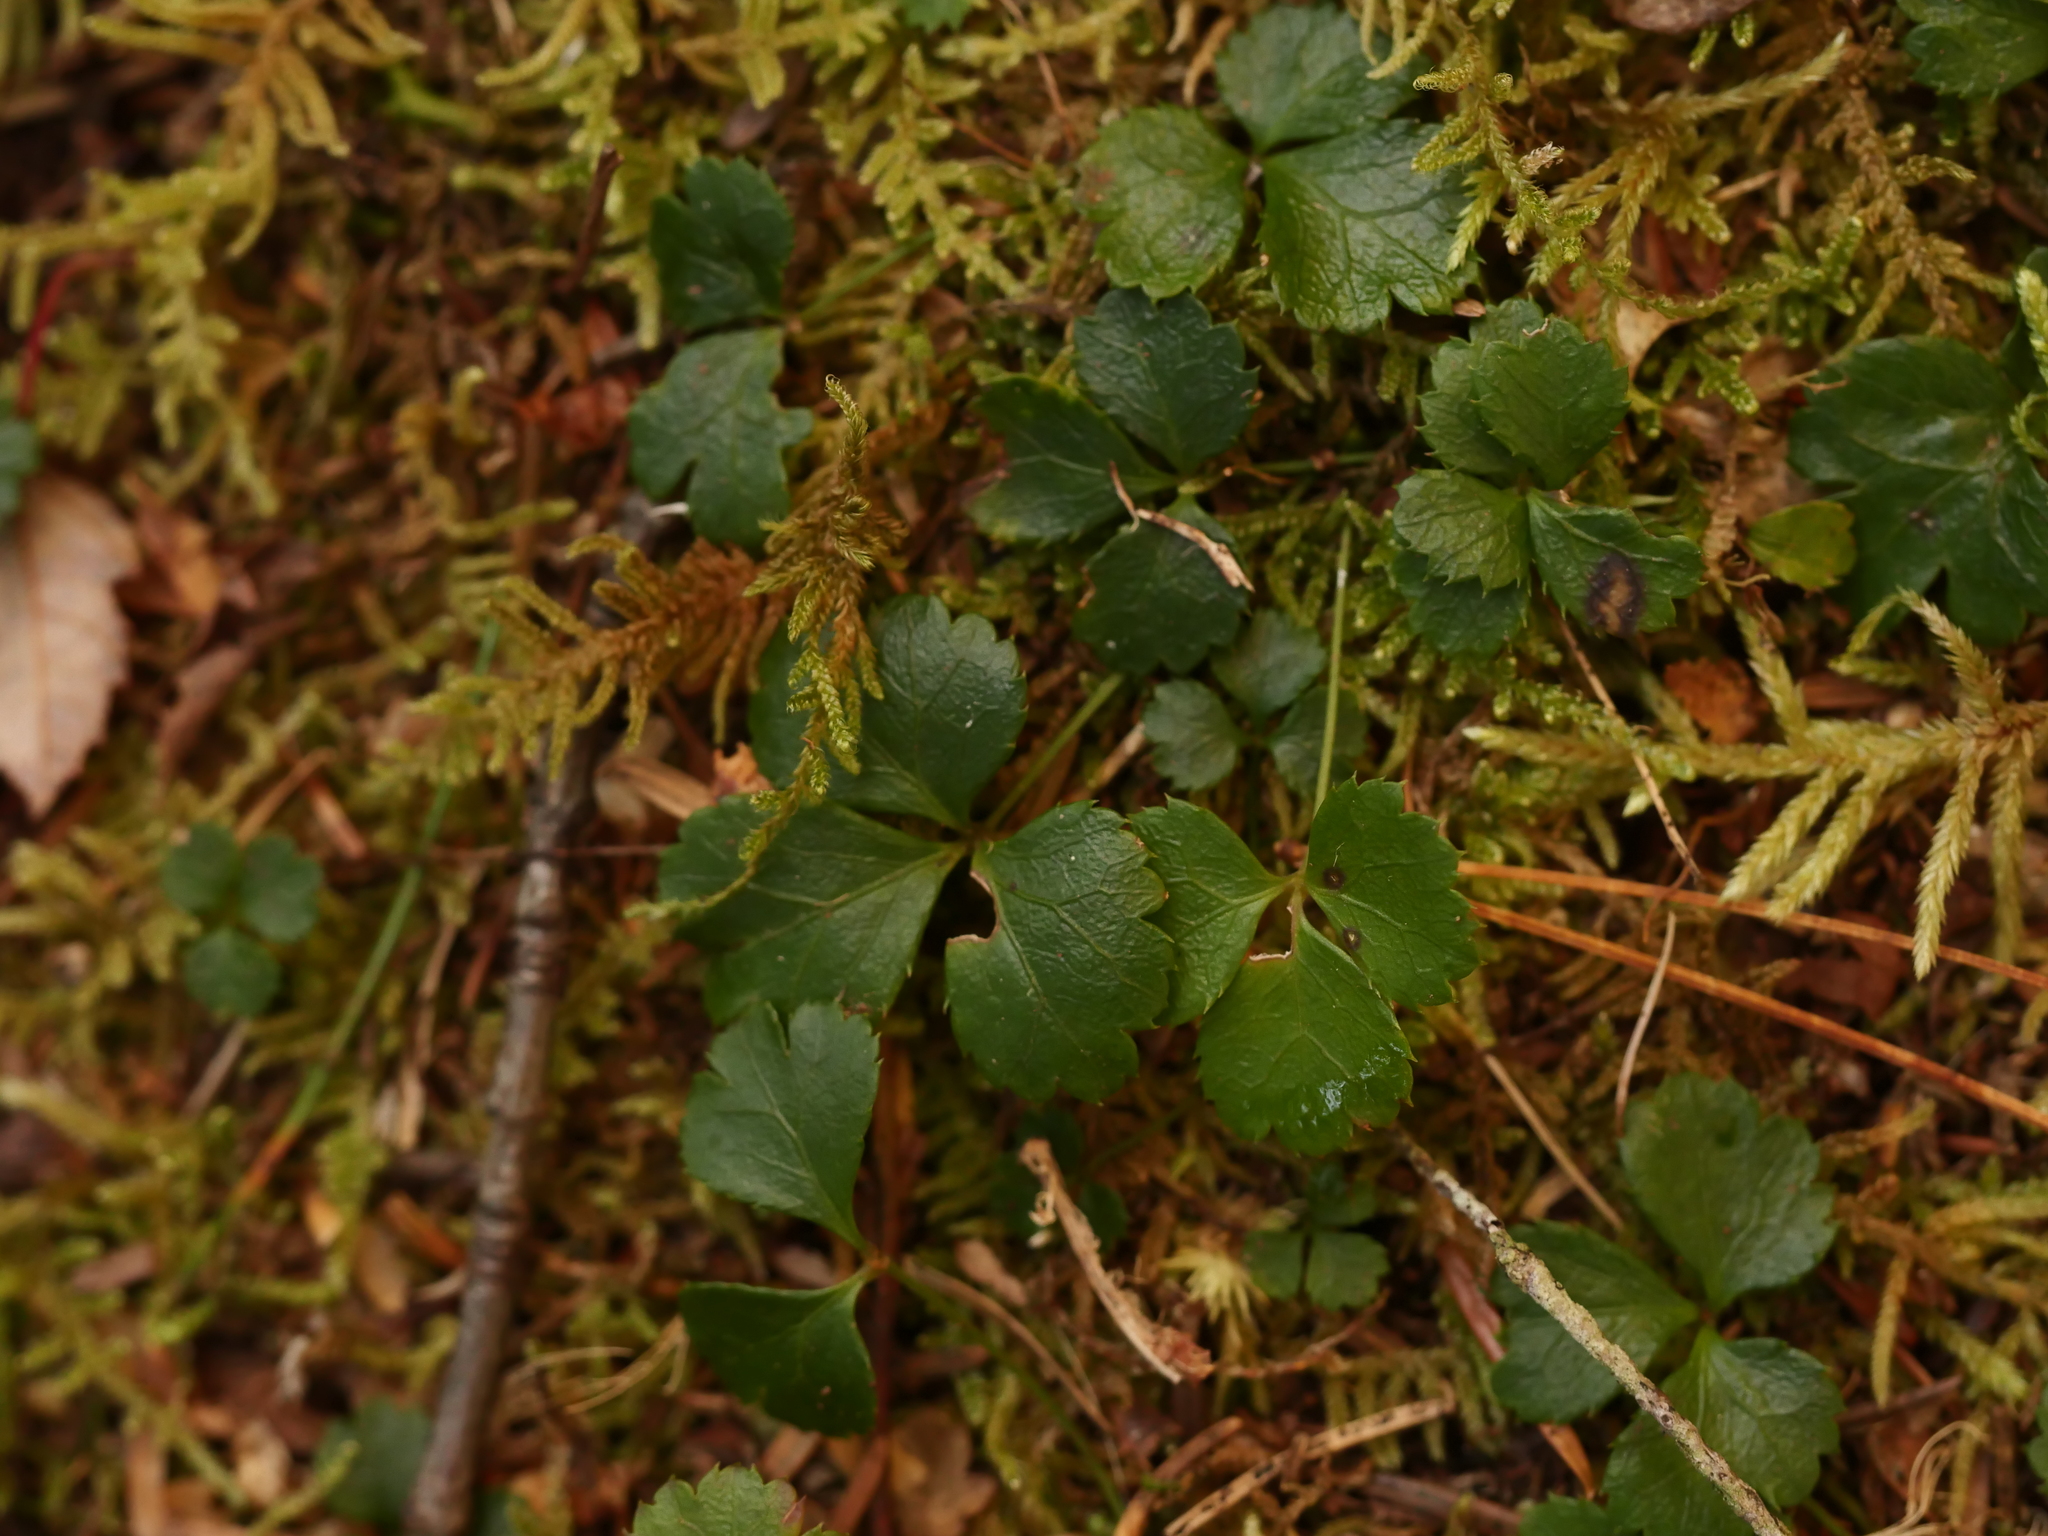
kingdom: Plantae
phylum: Tracheophyta
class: Magnoliopsida
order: Ranunculales
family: Ranunculaceae
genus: Coptis
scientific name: Coptis trifolia
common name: Canker-root
